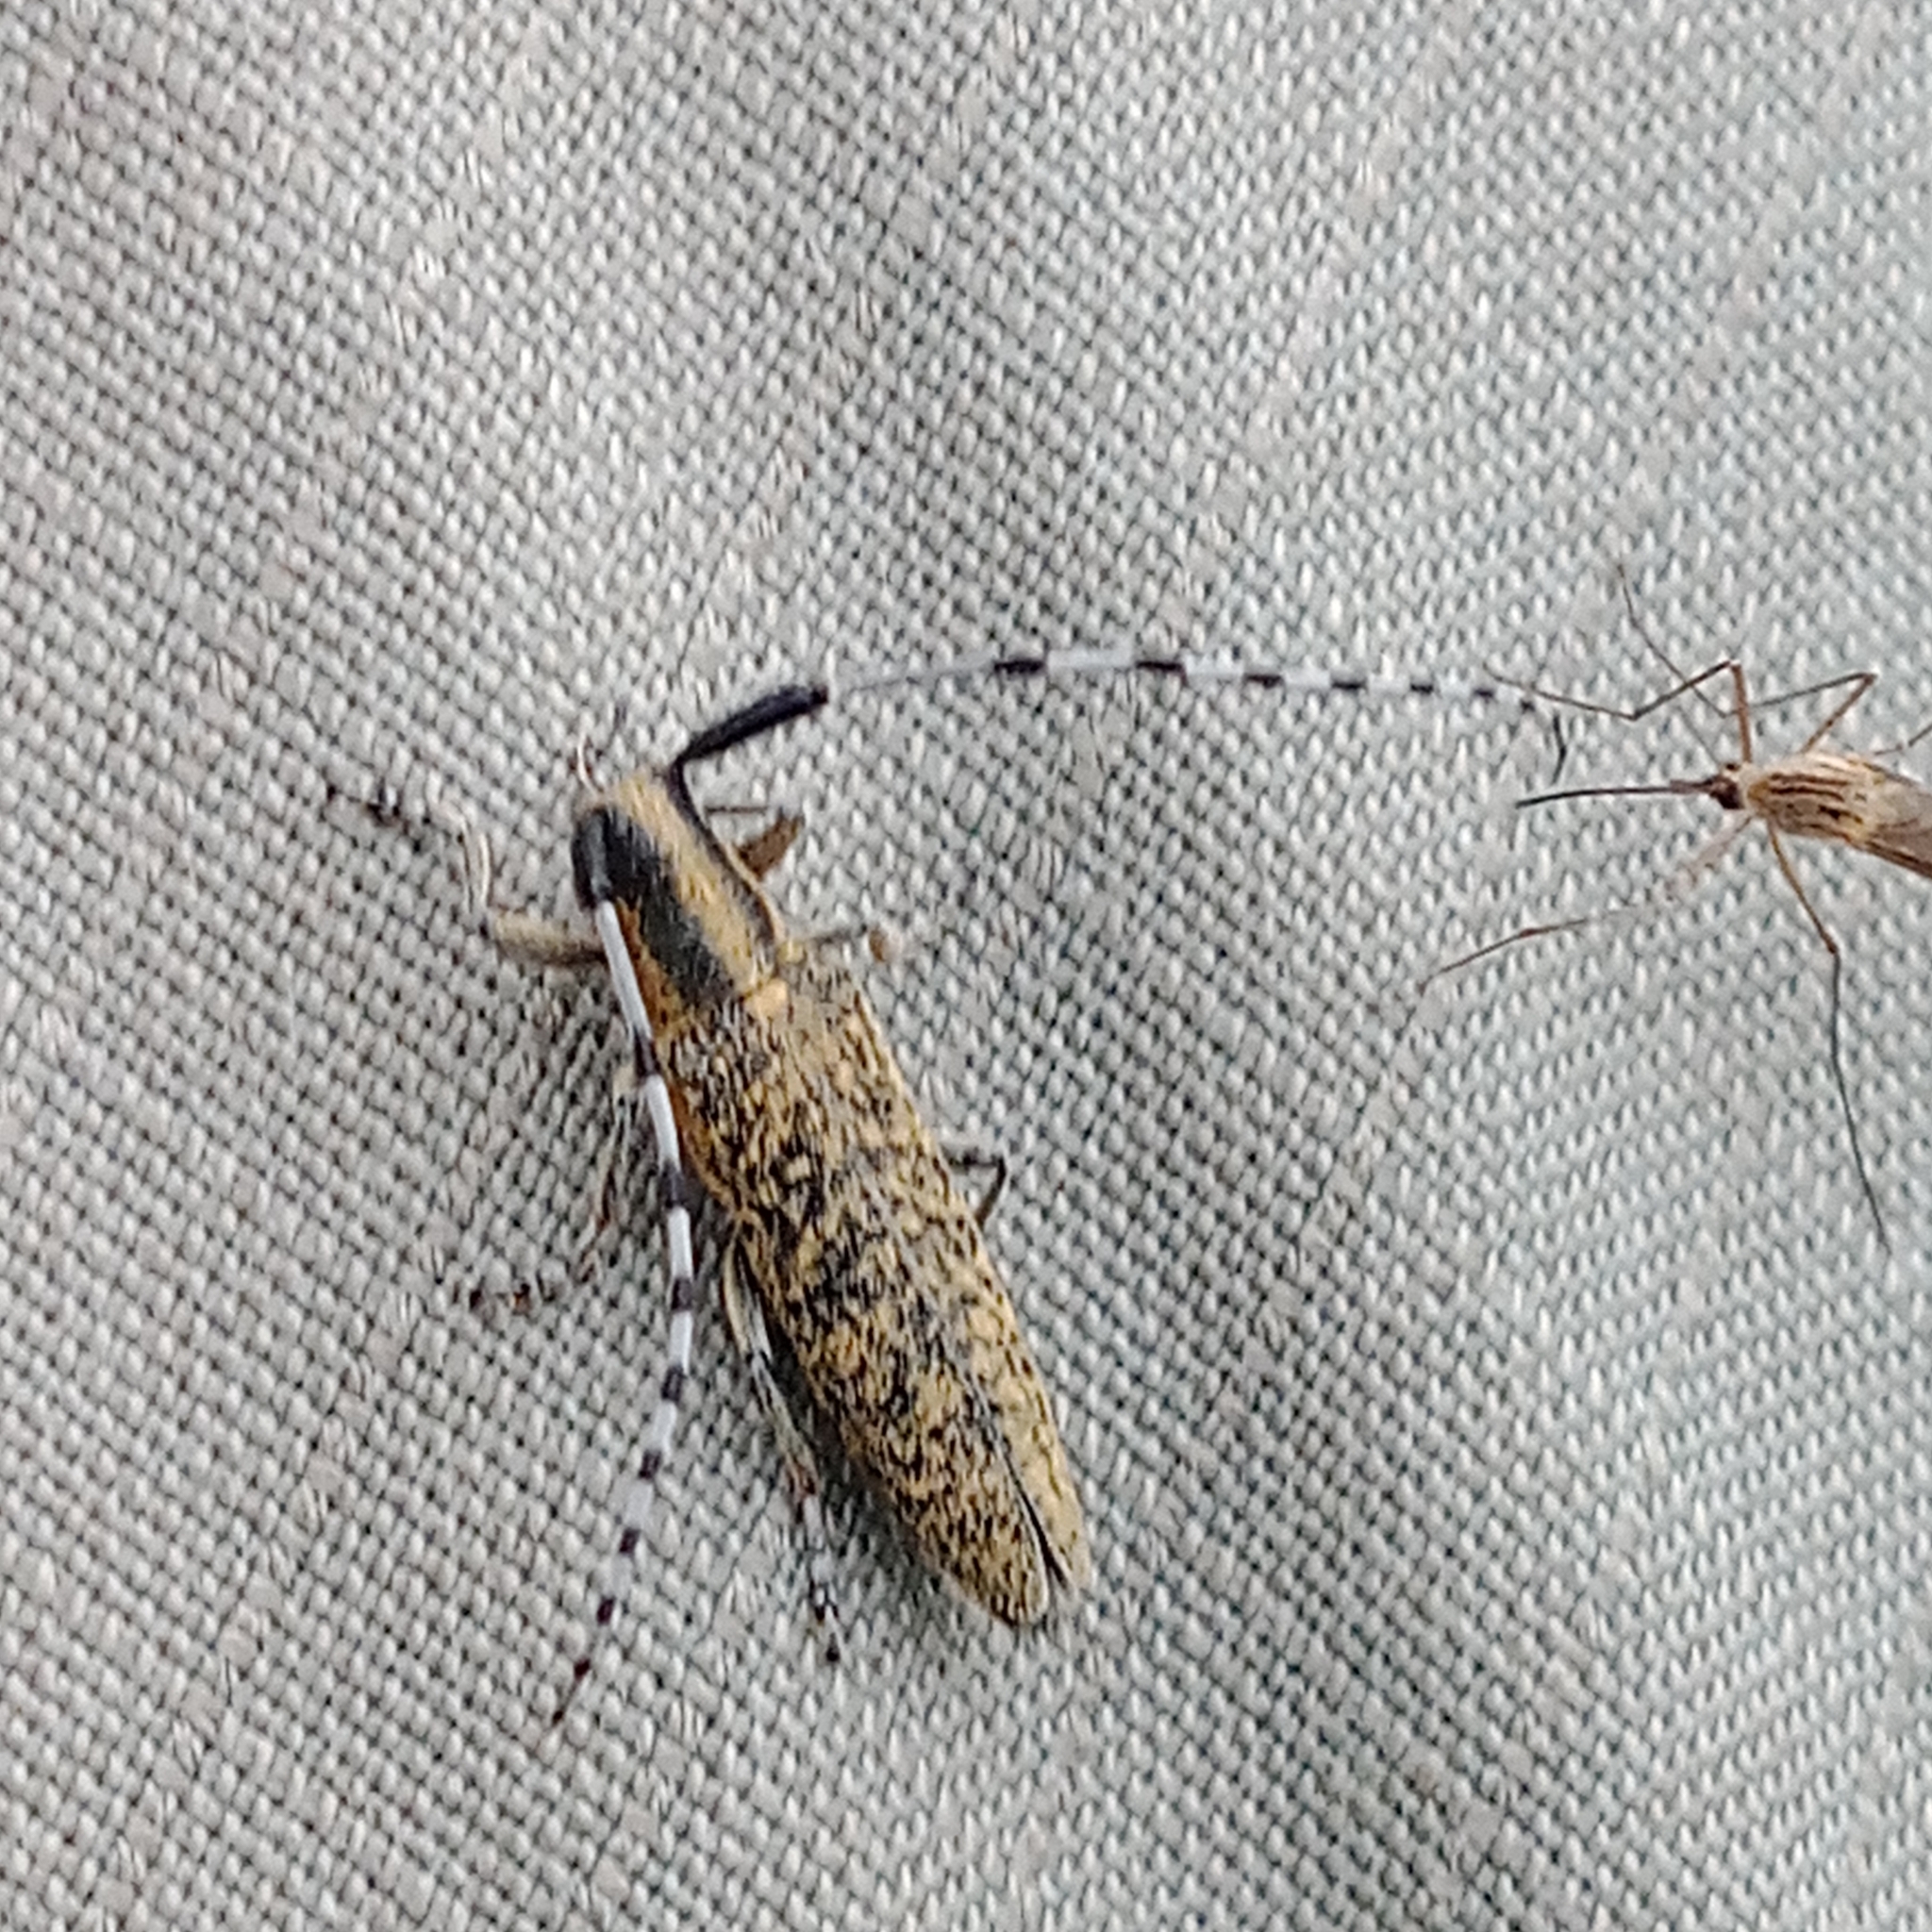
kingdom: Animalia
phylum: Arthropoda
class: Insecta
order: Coleoptera
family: Cerambycidae
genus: Agapanthia
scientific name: Agapanthia villosoviridescens
